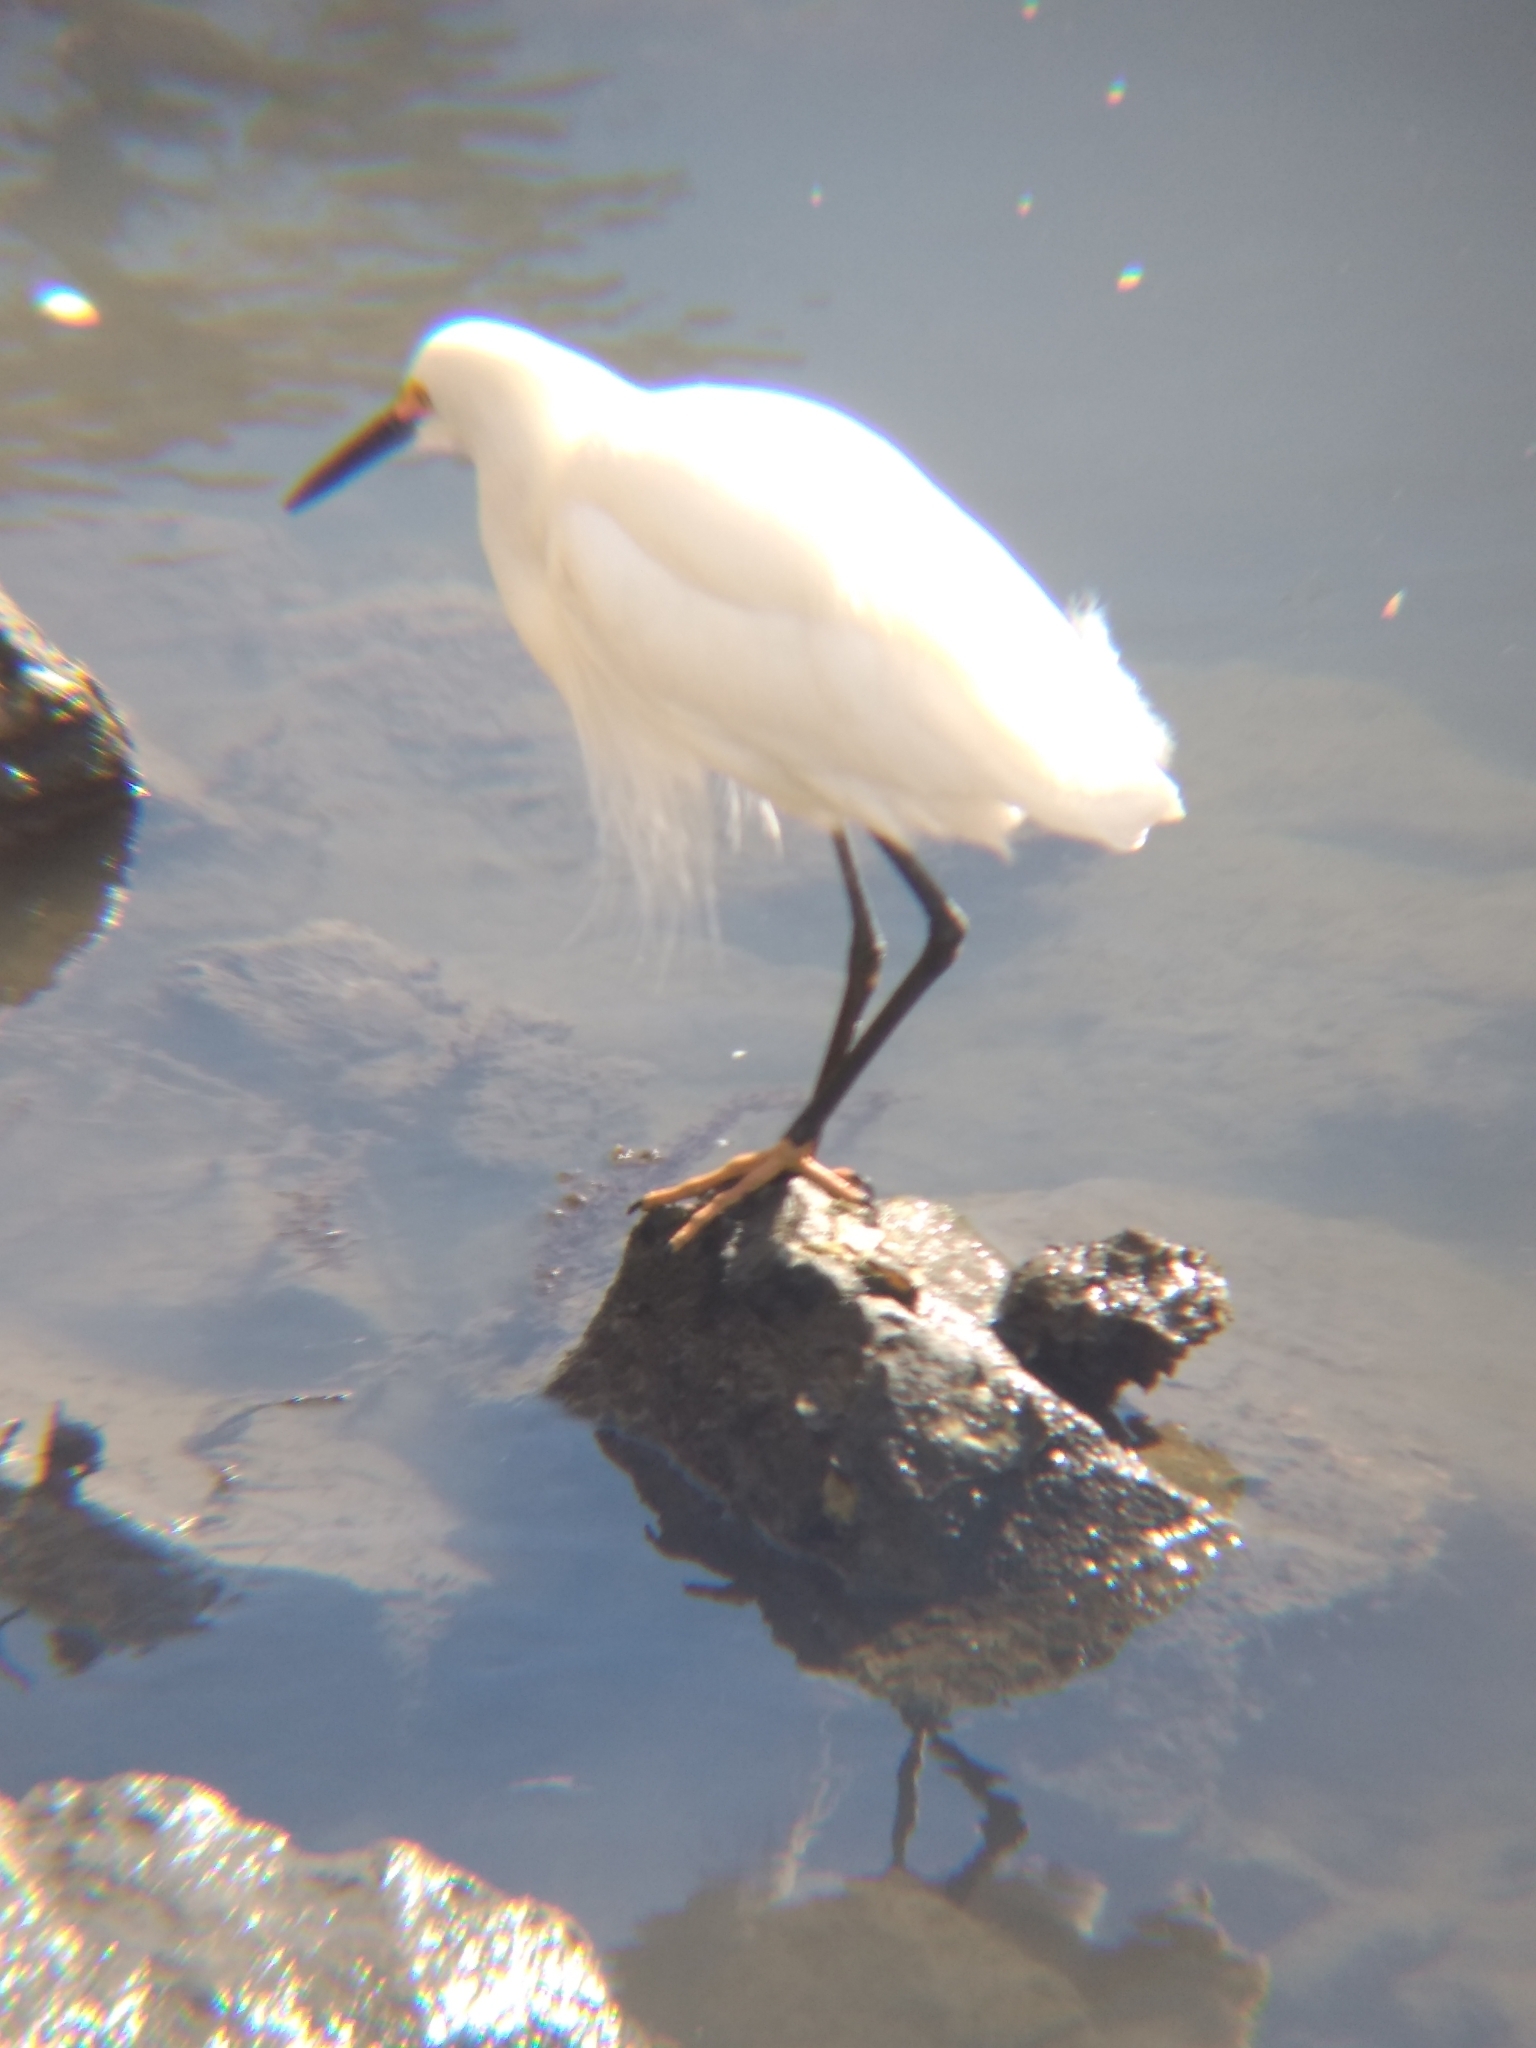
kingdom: Animalia
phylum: Chordata
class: Aves
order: Pelecaniformes
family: Ardeidae
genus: Egretta
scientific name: Egretta thula
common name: Snowy egret
